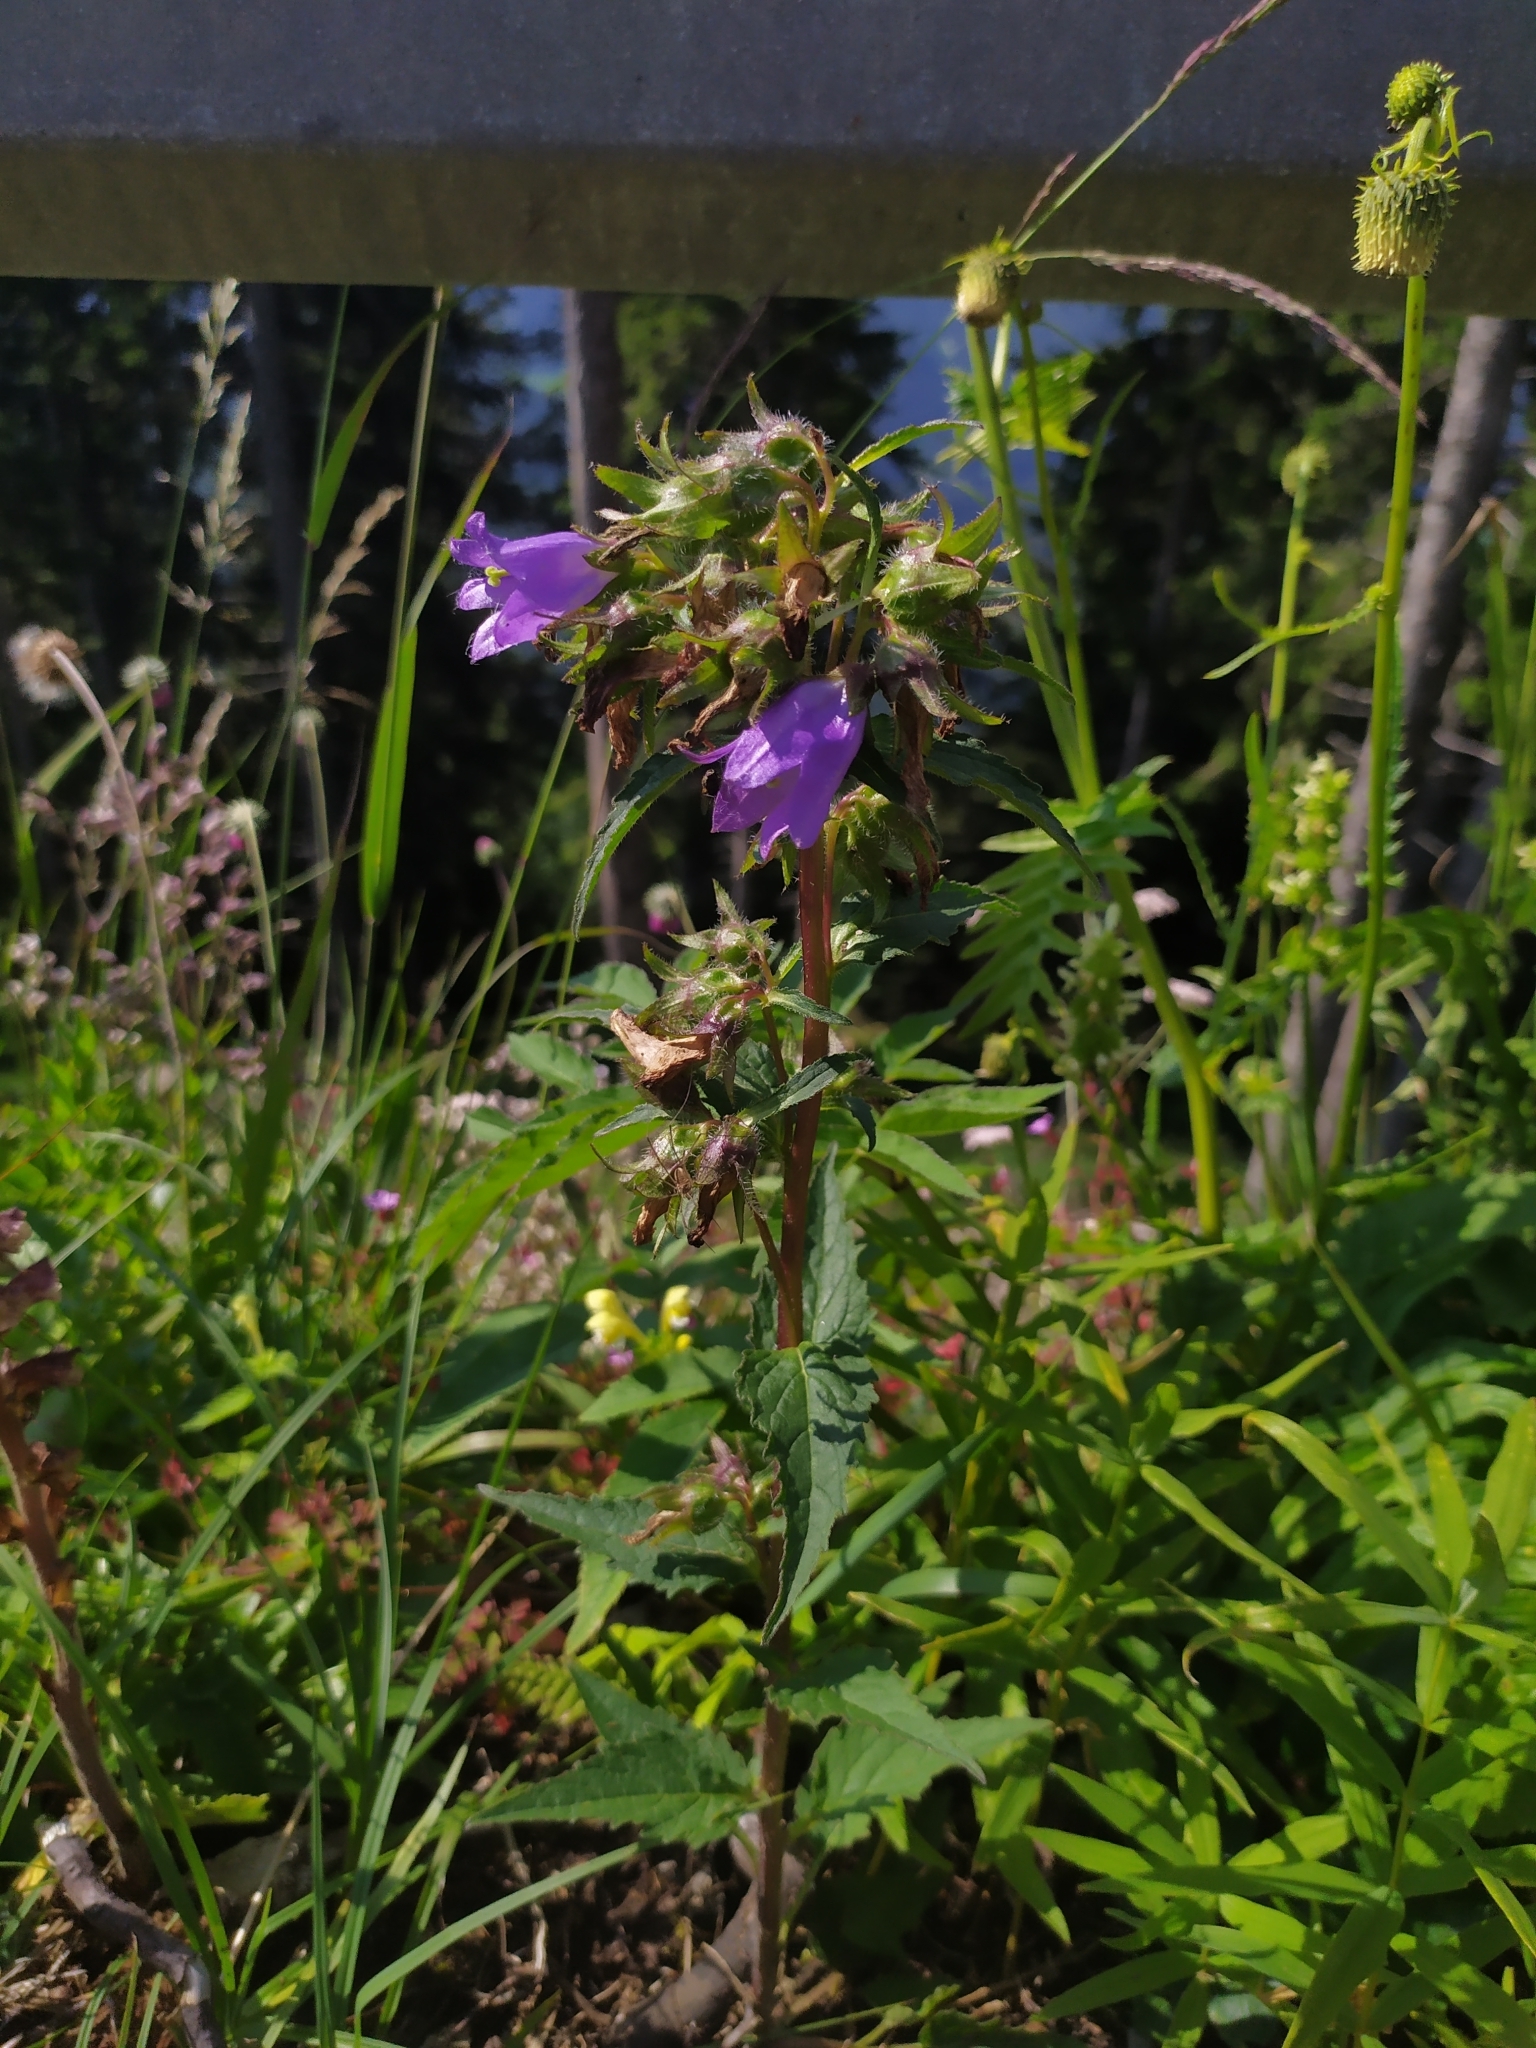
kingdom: Plantae
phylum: Tracheophyta
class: Magnoliopsida
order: Asterales
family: Campanulaceae
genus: Campanula
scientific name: Campanula trachelium
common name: Nettle-leaved bellflower
